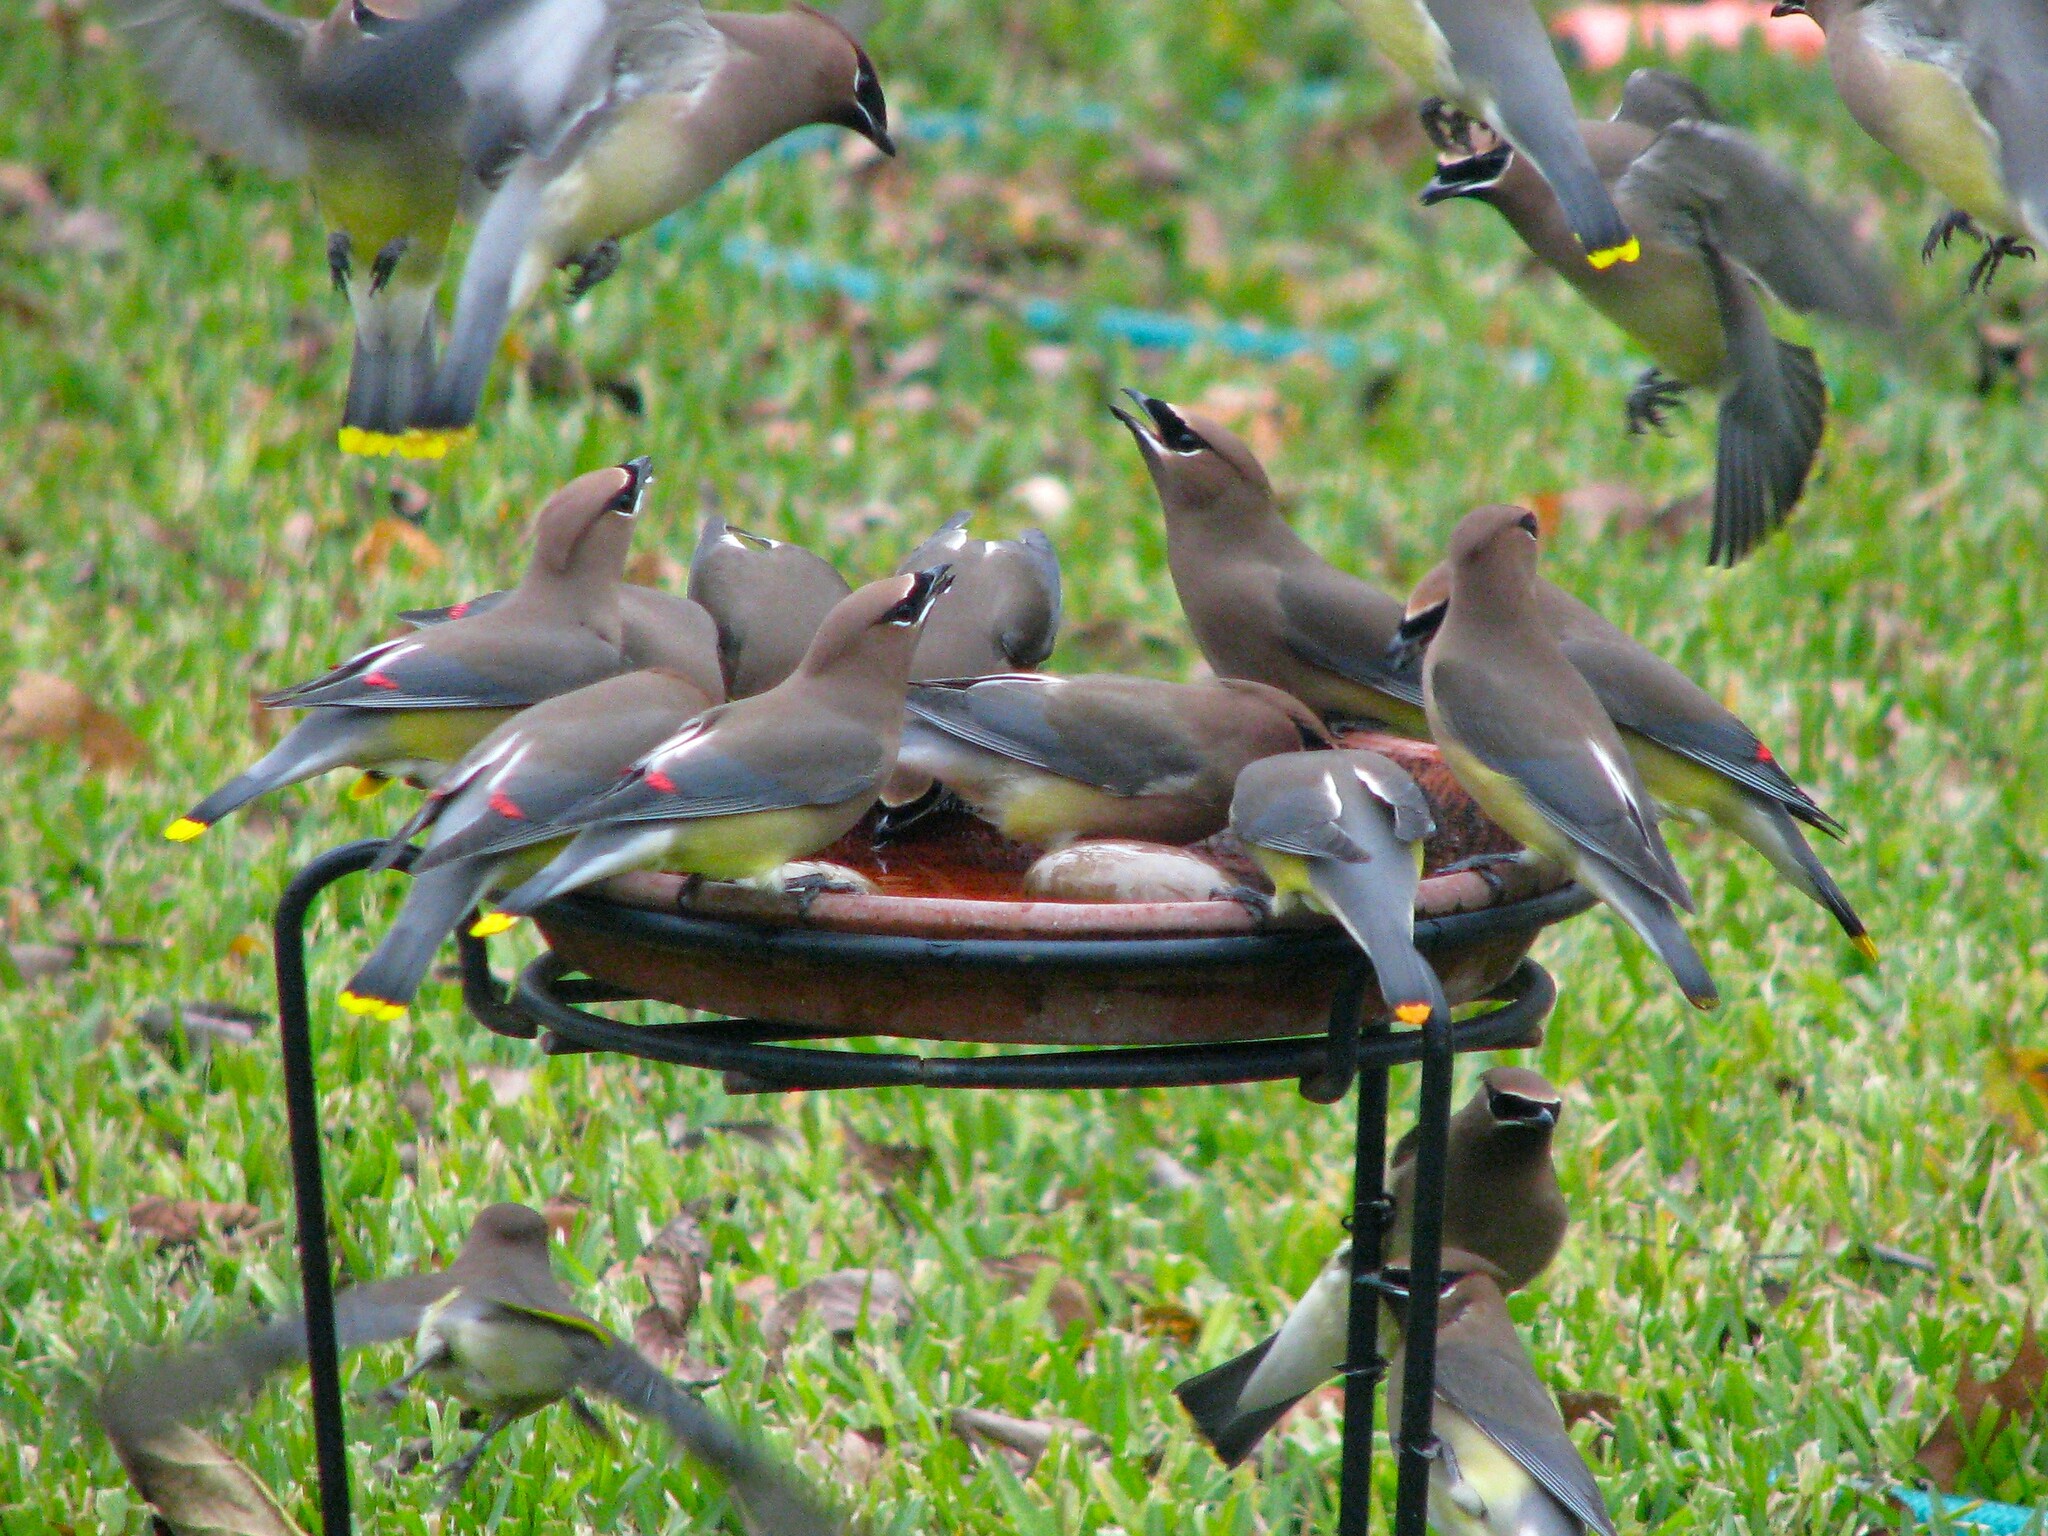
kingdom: Animalia
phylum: Chordata
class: Aves
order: Passeriformes
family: Bombycillidae
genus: Bombycilla
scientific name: Bombycilla cedrorum
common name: Cedar waxwing
